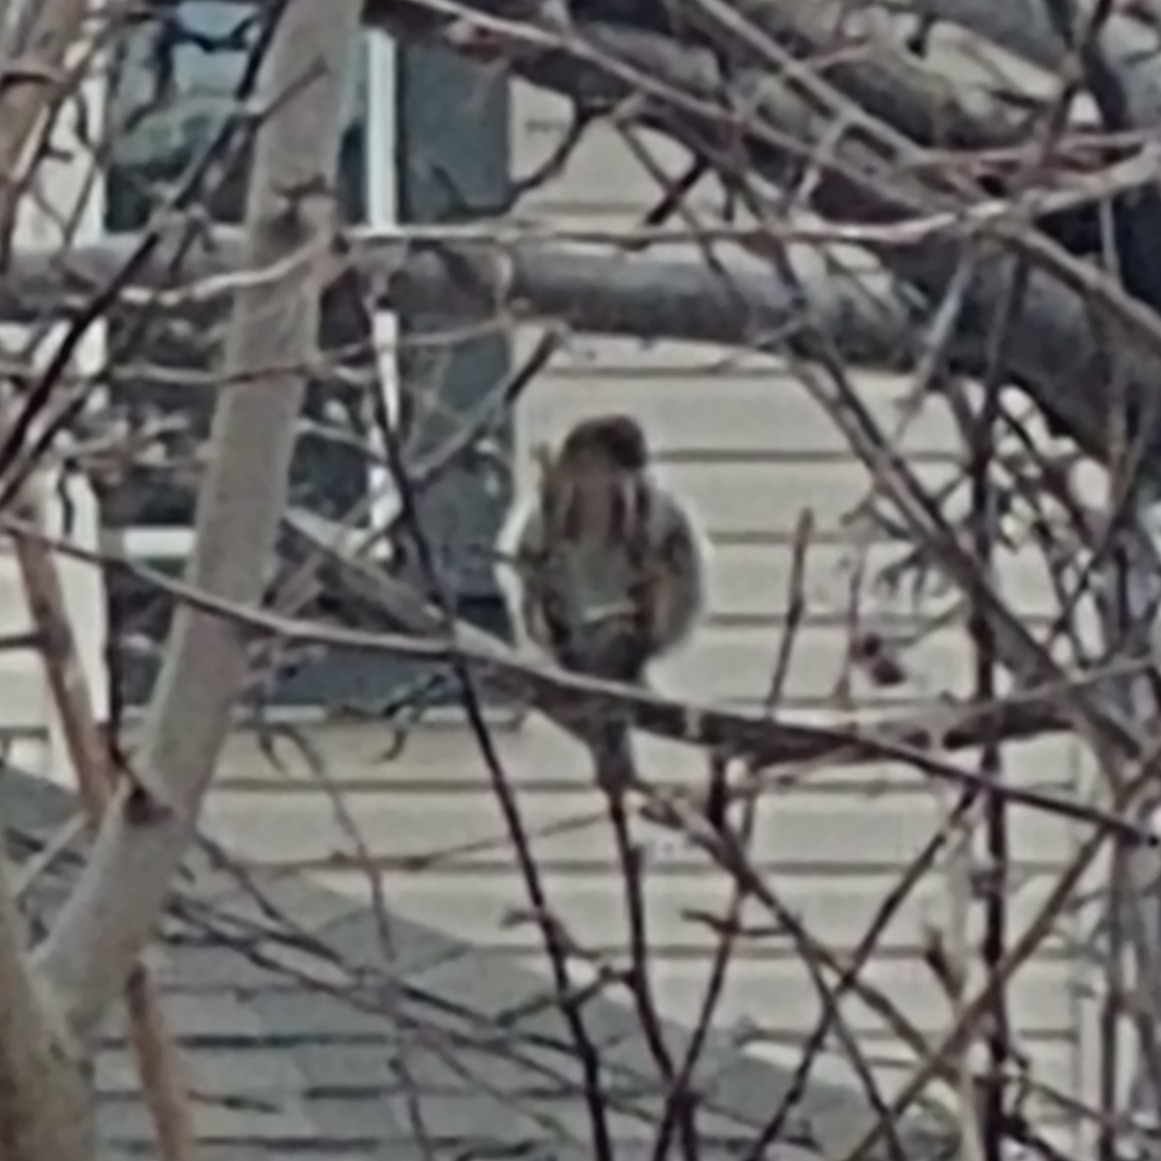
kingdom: Animalia
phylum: Chordata
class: Aves
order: Passeriformes
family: Passeridae
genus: Passer
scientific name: Passer domesticus
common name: House sparrow
